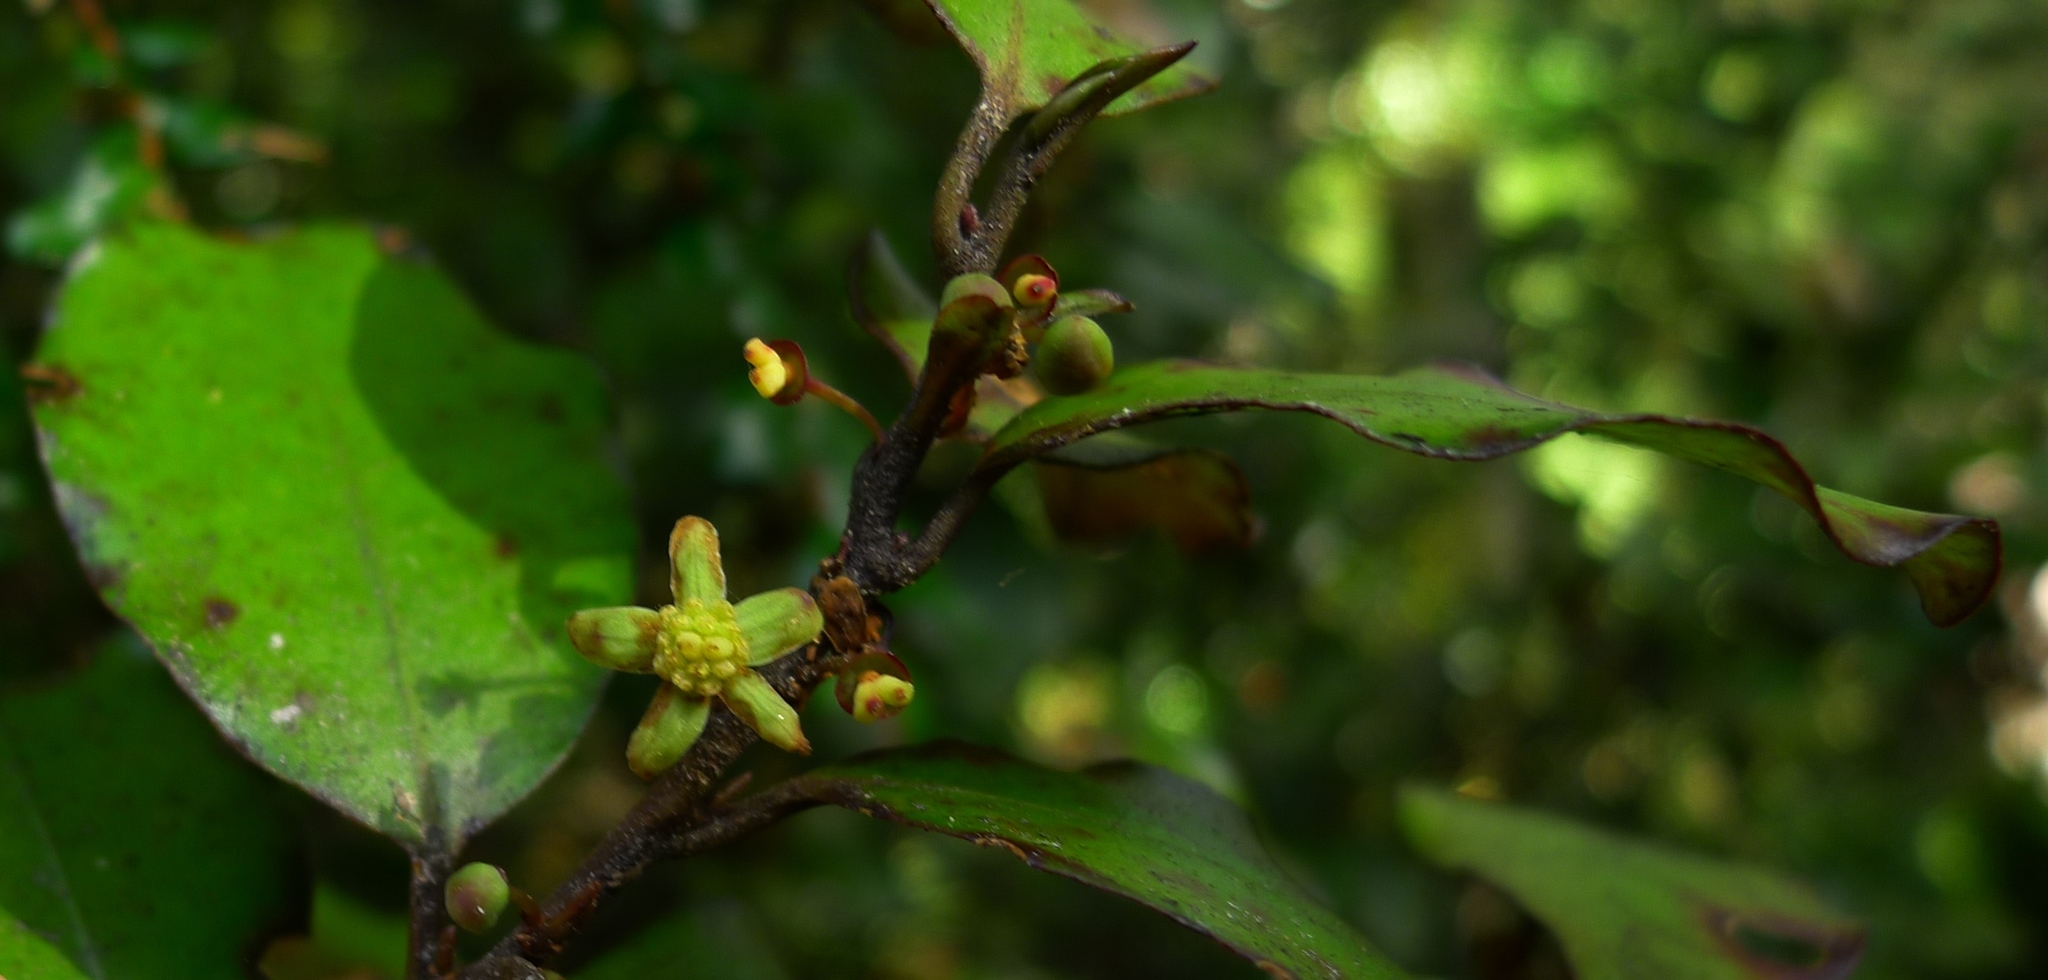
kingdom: Plantae
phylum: Tracheophyta
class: Magnoliopsida
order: Canellales
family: Winteraceae
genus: Pseudowintera
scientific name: Pseudowintera colorata
